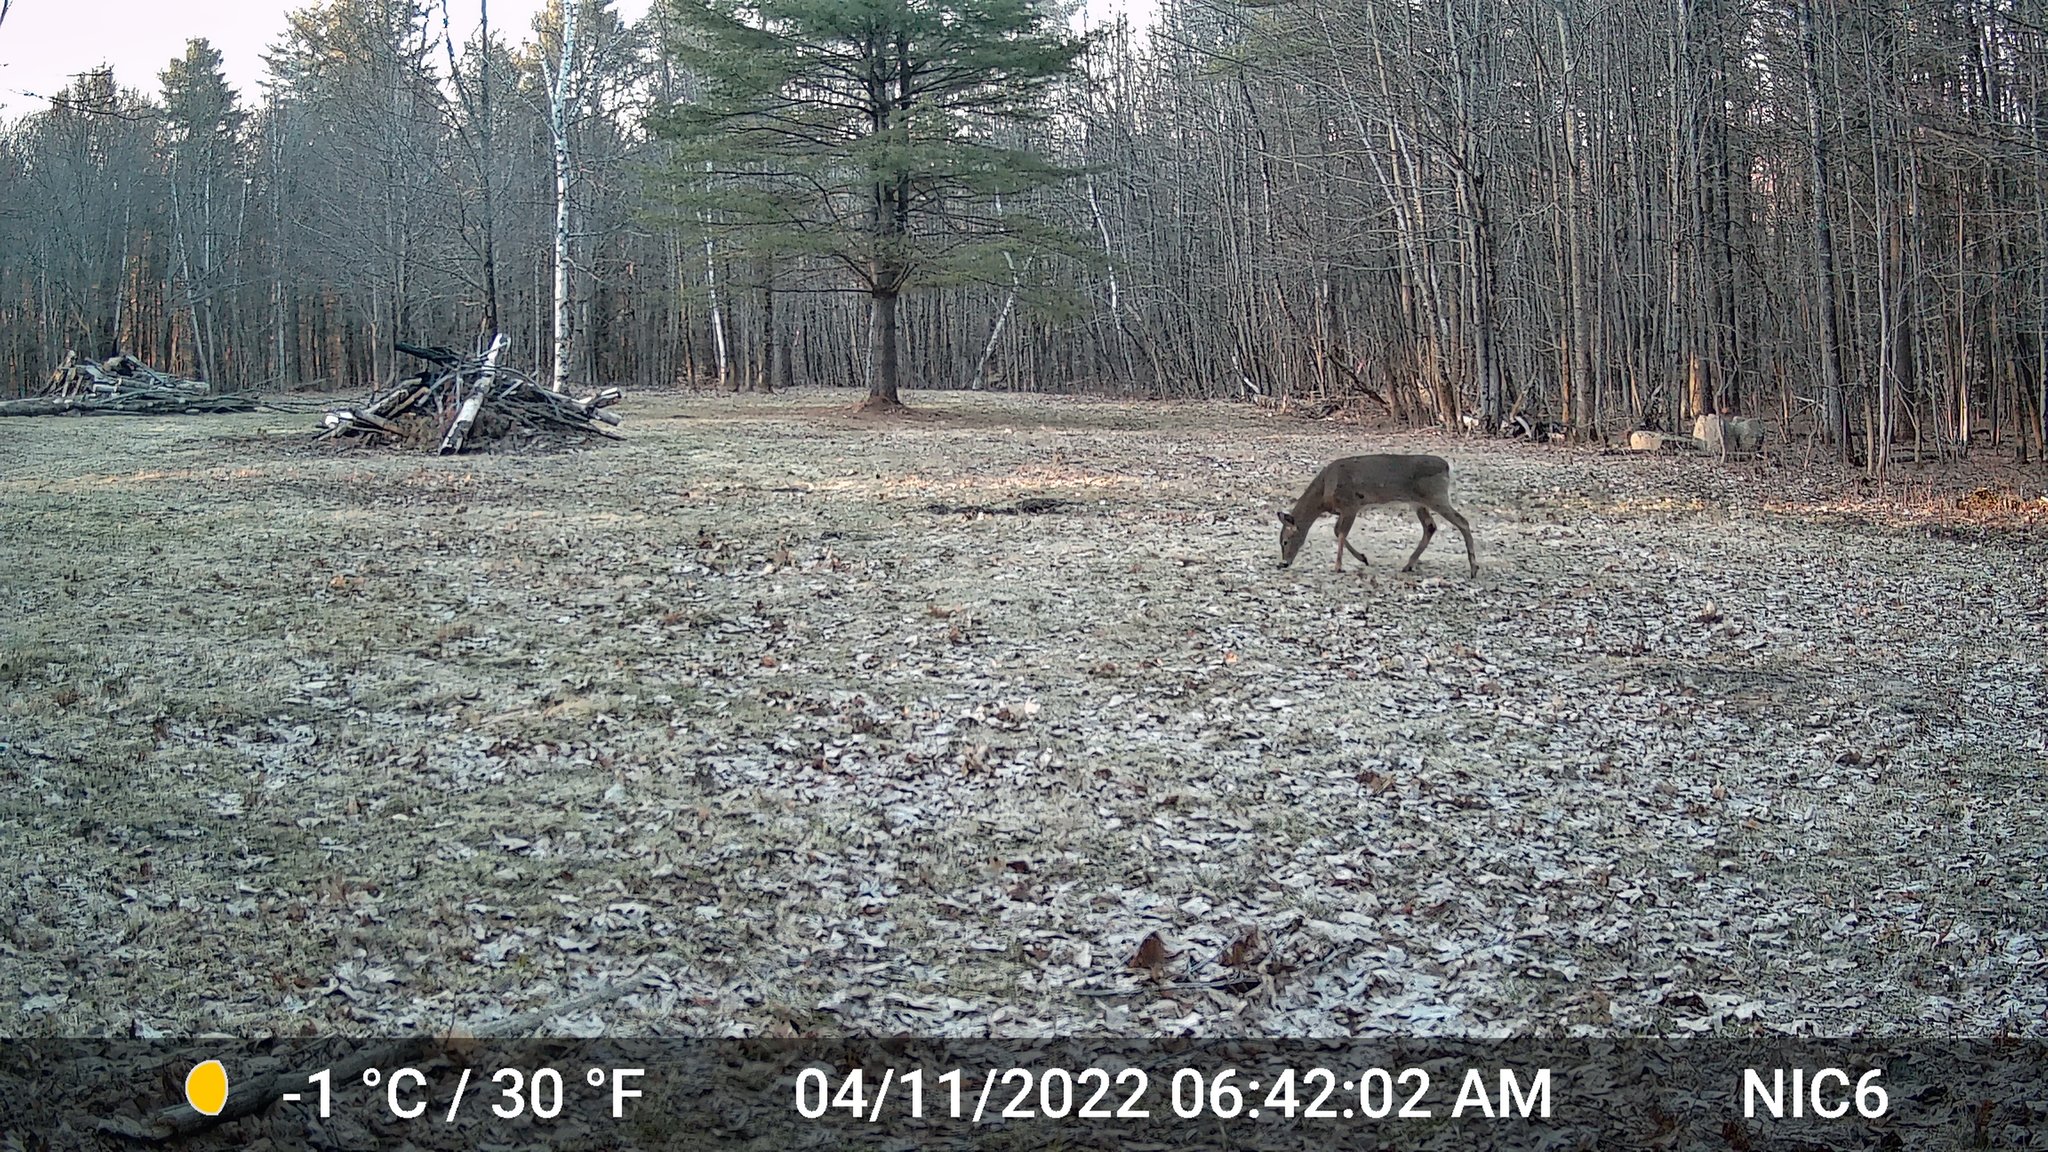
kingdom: Animalia
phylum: Chordata
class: Mammalia
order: Artiodactyla
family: Cervidae
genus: Odocoileus
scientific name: Odocoileus virginianus
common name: White-tailed deer
